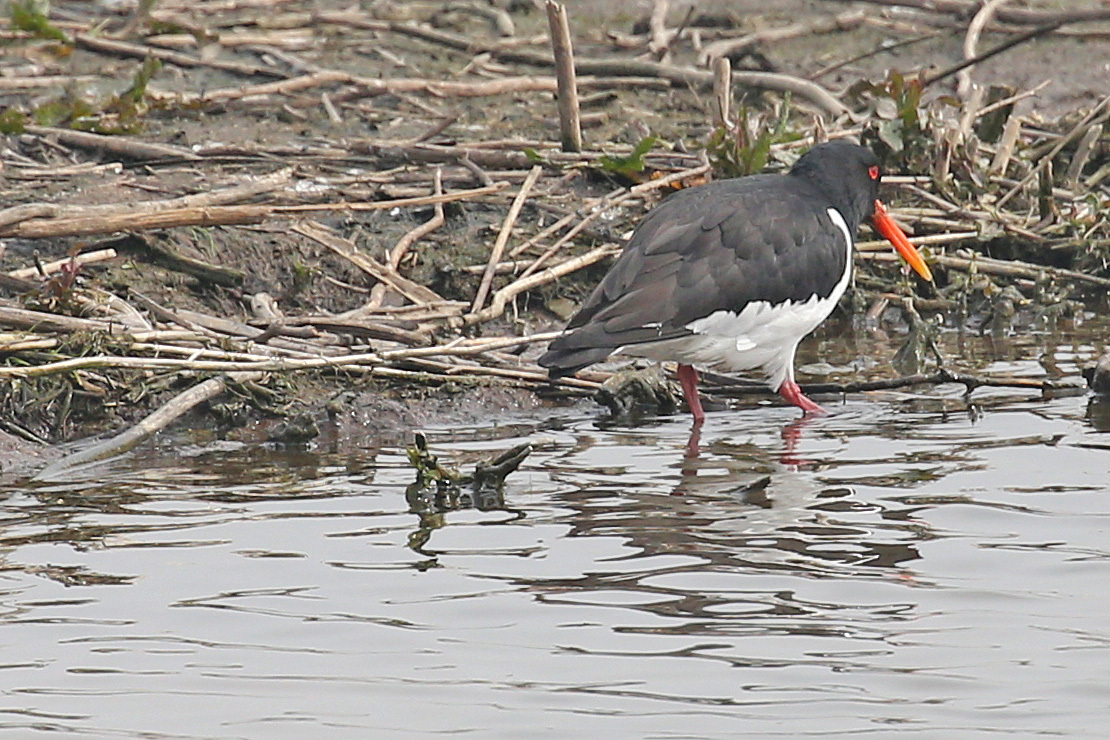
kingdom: Animalia
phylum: Chordata
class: Aves
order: Charadriiformes
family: Haematopodidae
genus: Haematopus
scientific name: Haematopus ostralegus
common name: Eurasian oystercatcher
